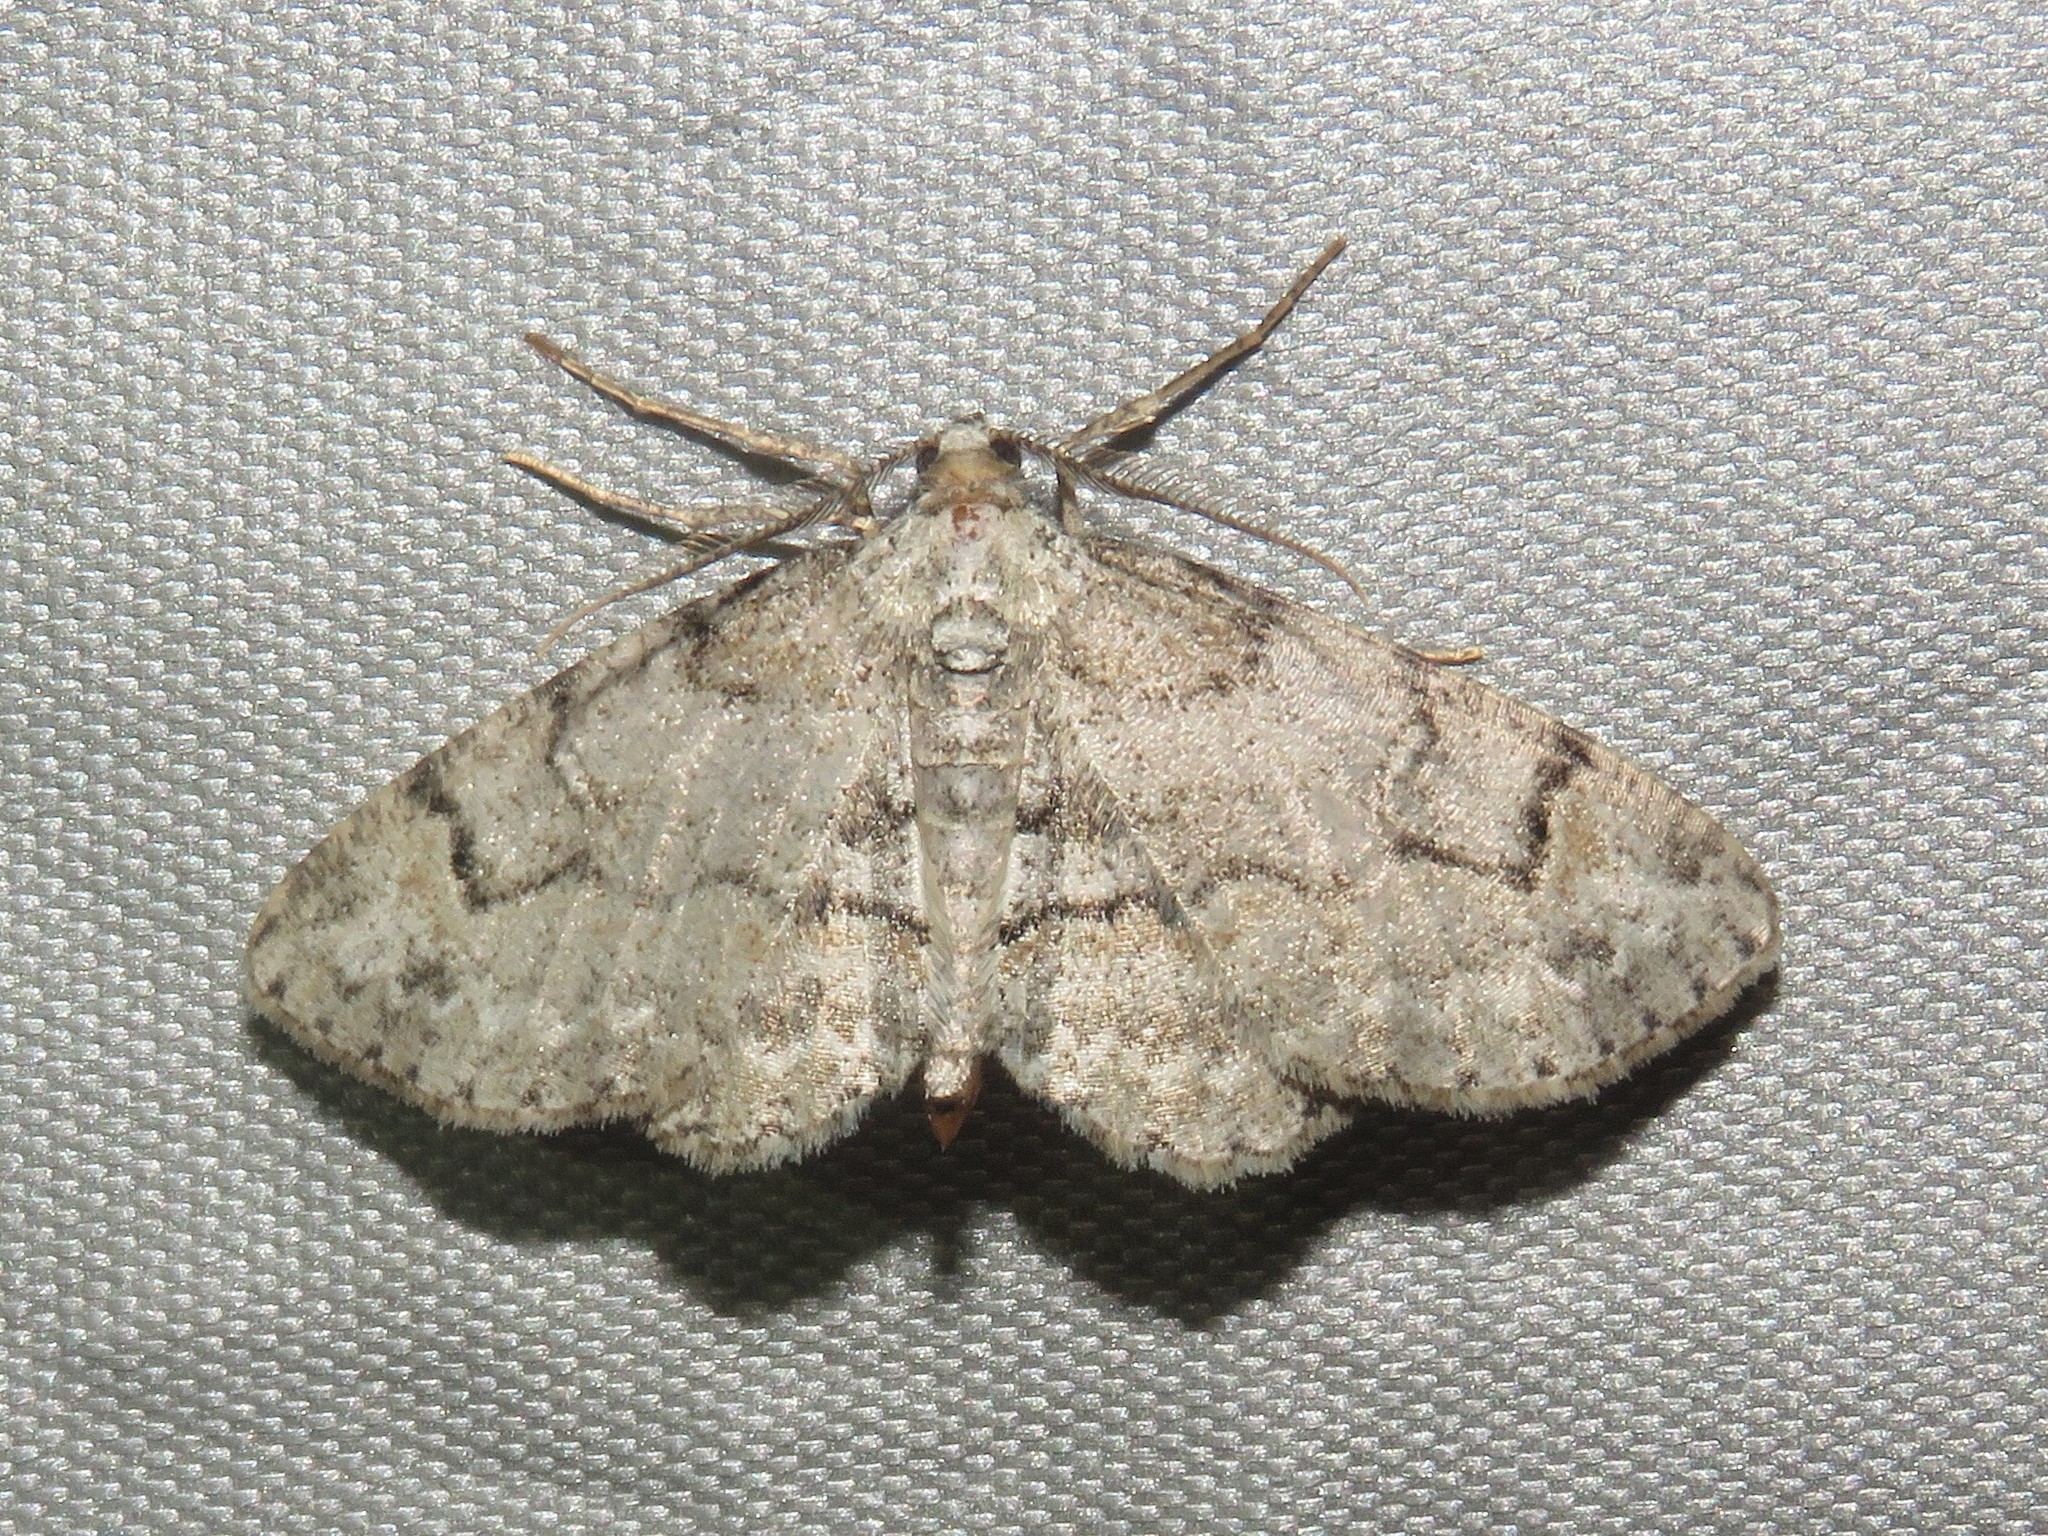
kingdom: Animalia
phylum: Arthropoda
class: Insecta
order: Lepidoptera
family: Geometridae
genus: Iridopsis
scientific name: Iridopsis ephyraria
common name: Pale-winged gray
